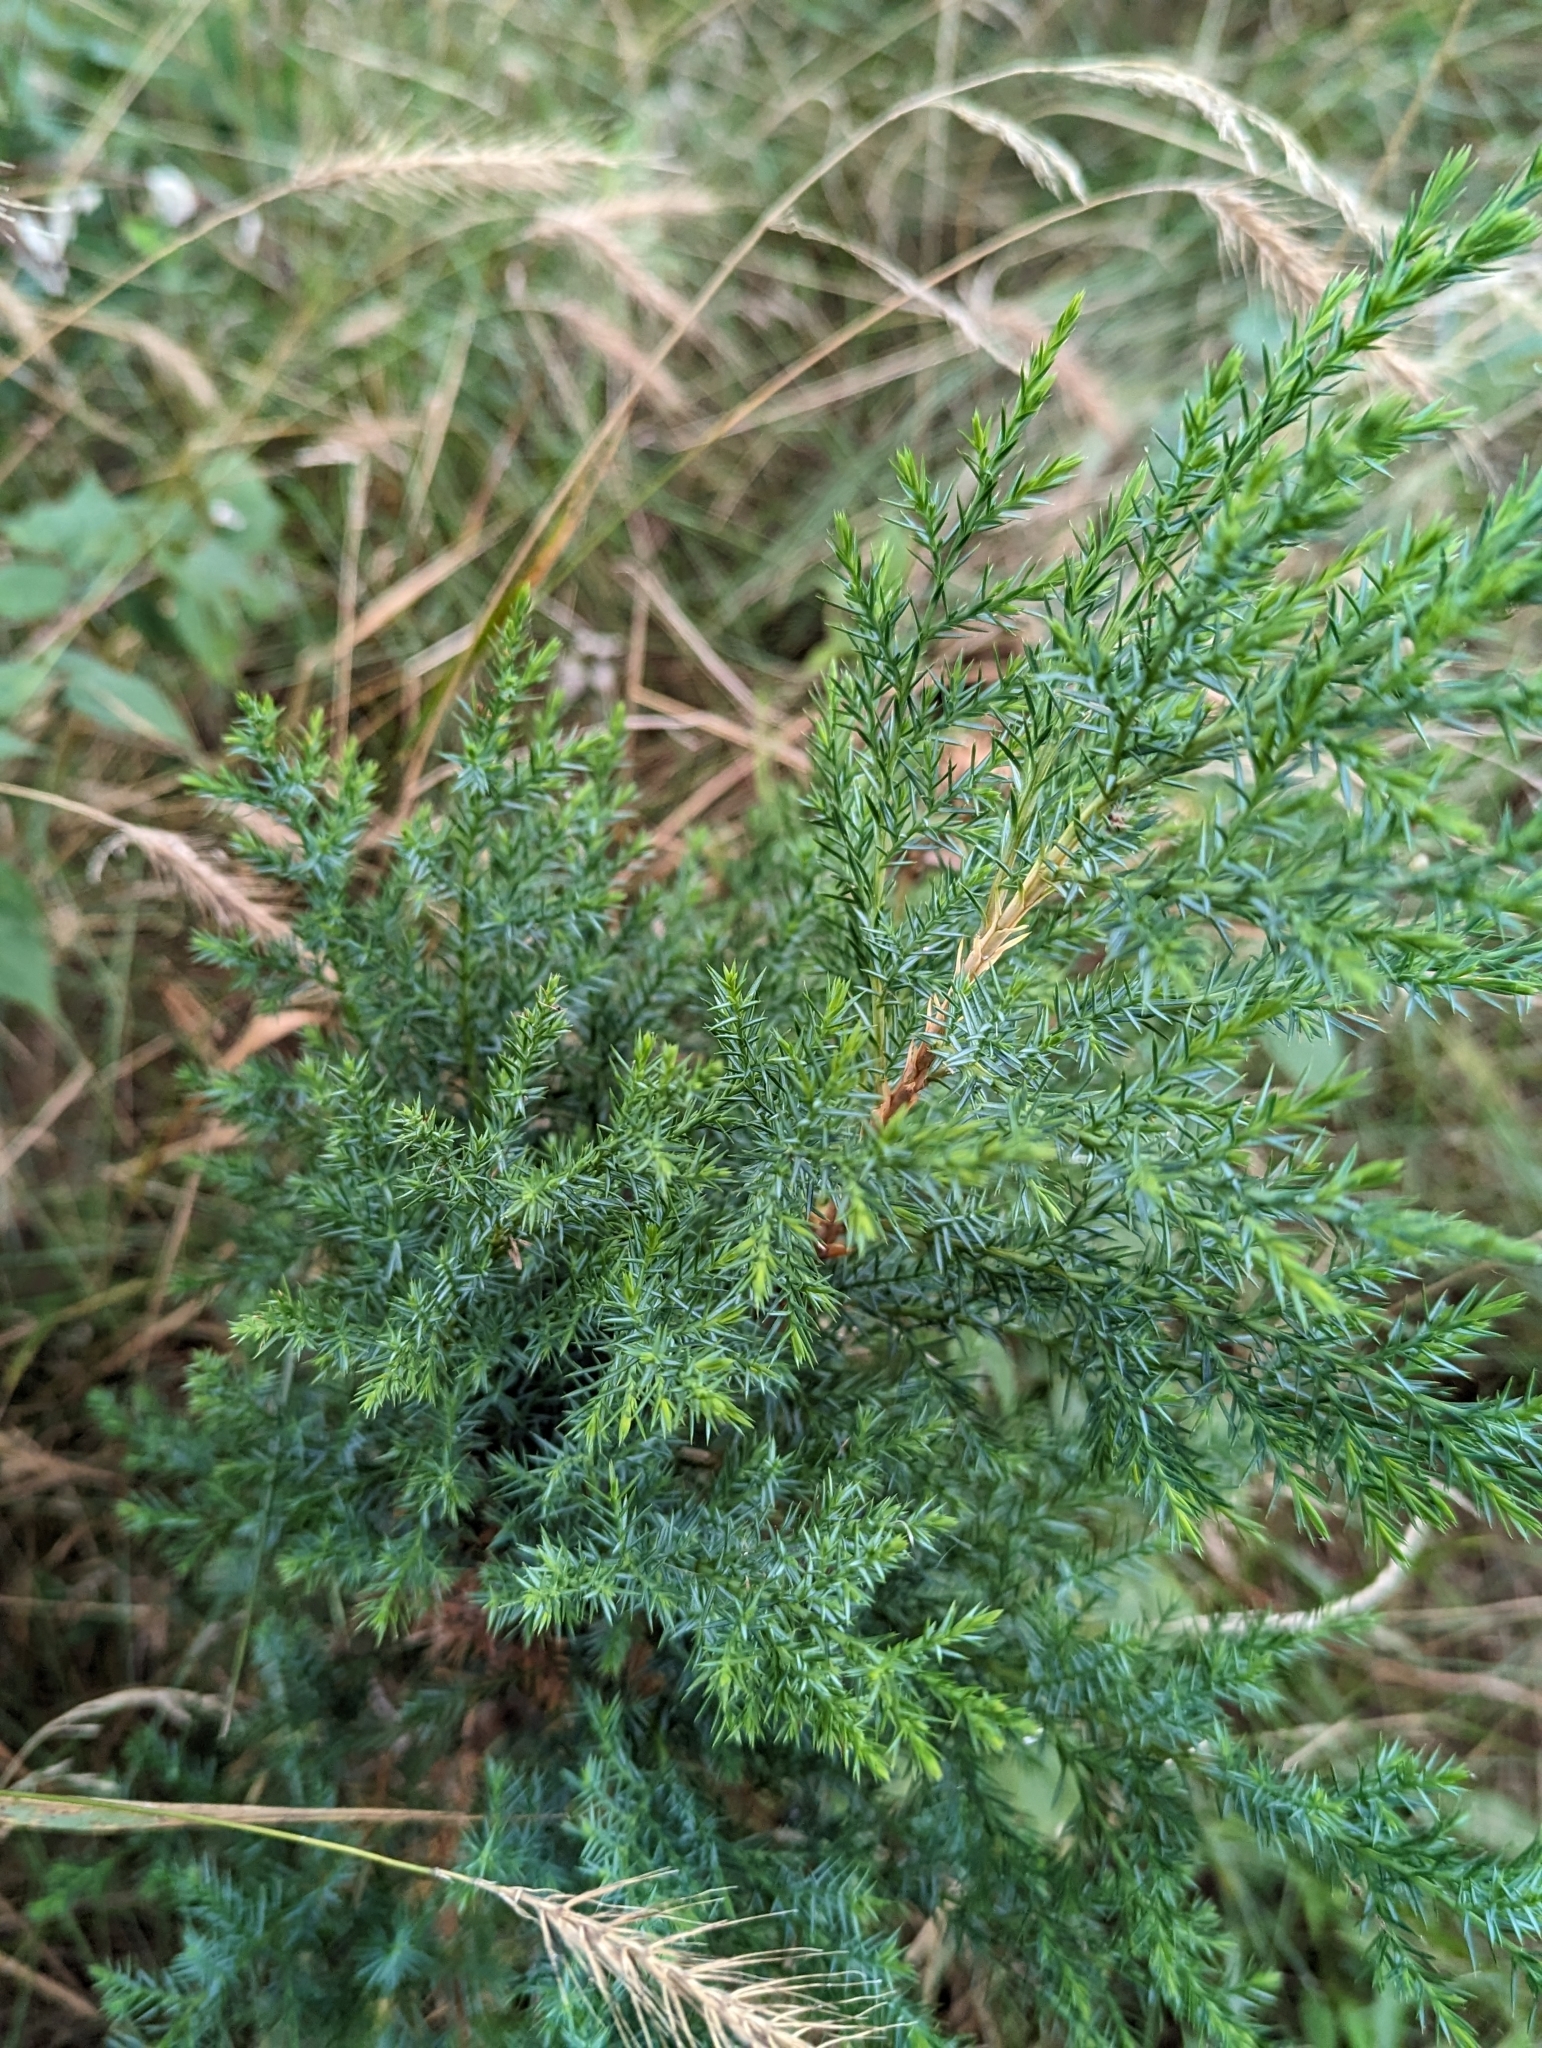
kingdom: Plantae
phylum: Tracheophyta
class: Pinopsida
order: Pinales
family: Cupressaceae
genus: Juniperus
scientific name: Juniperus virginiana
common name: Red juniper
